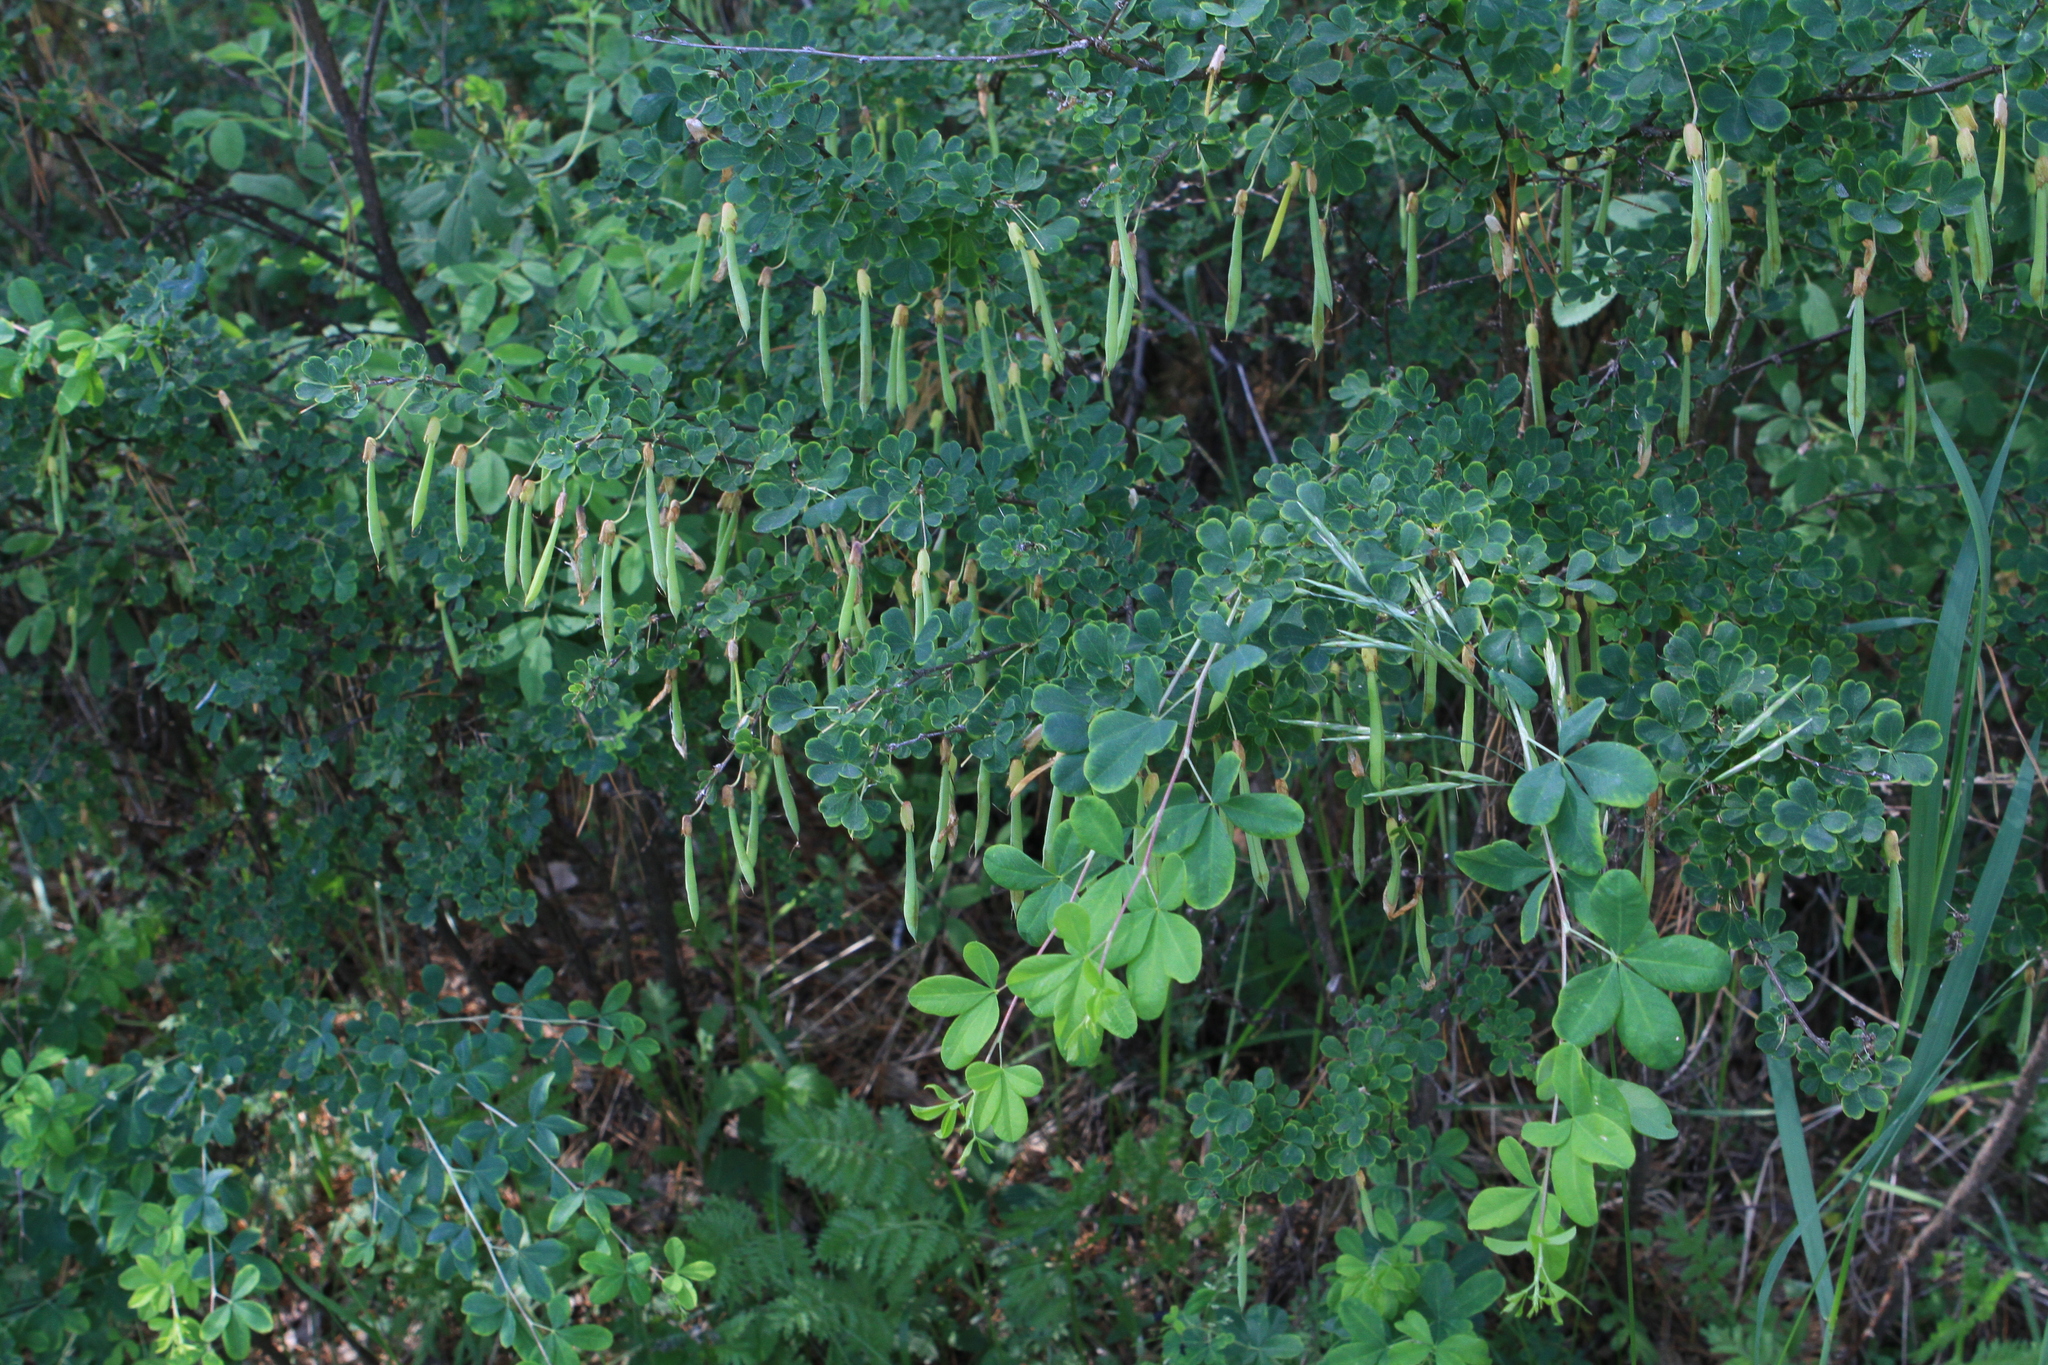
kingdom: Plantae
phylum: Tracheophyta
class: Magnoliopsida
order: Fabales
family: Fabaceae
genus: Caragana
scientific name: Caragana frutex
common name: Russian peashrub
